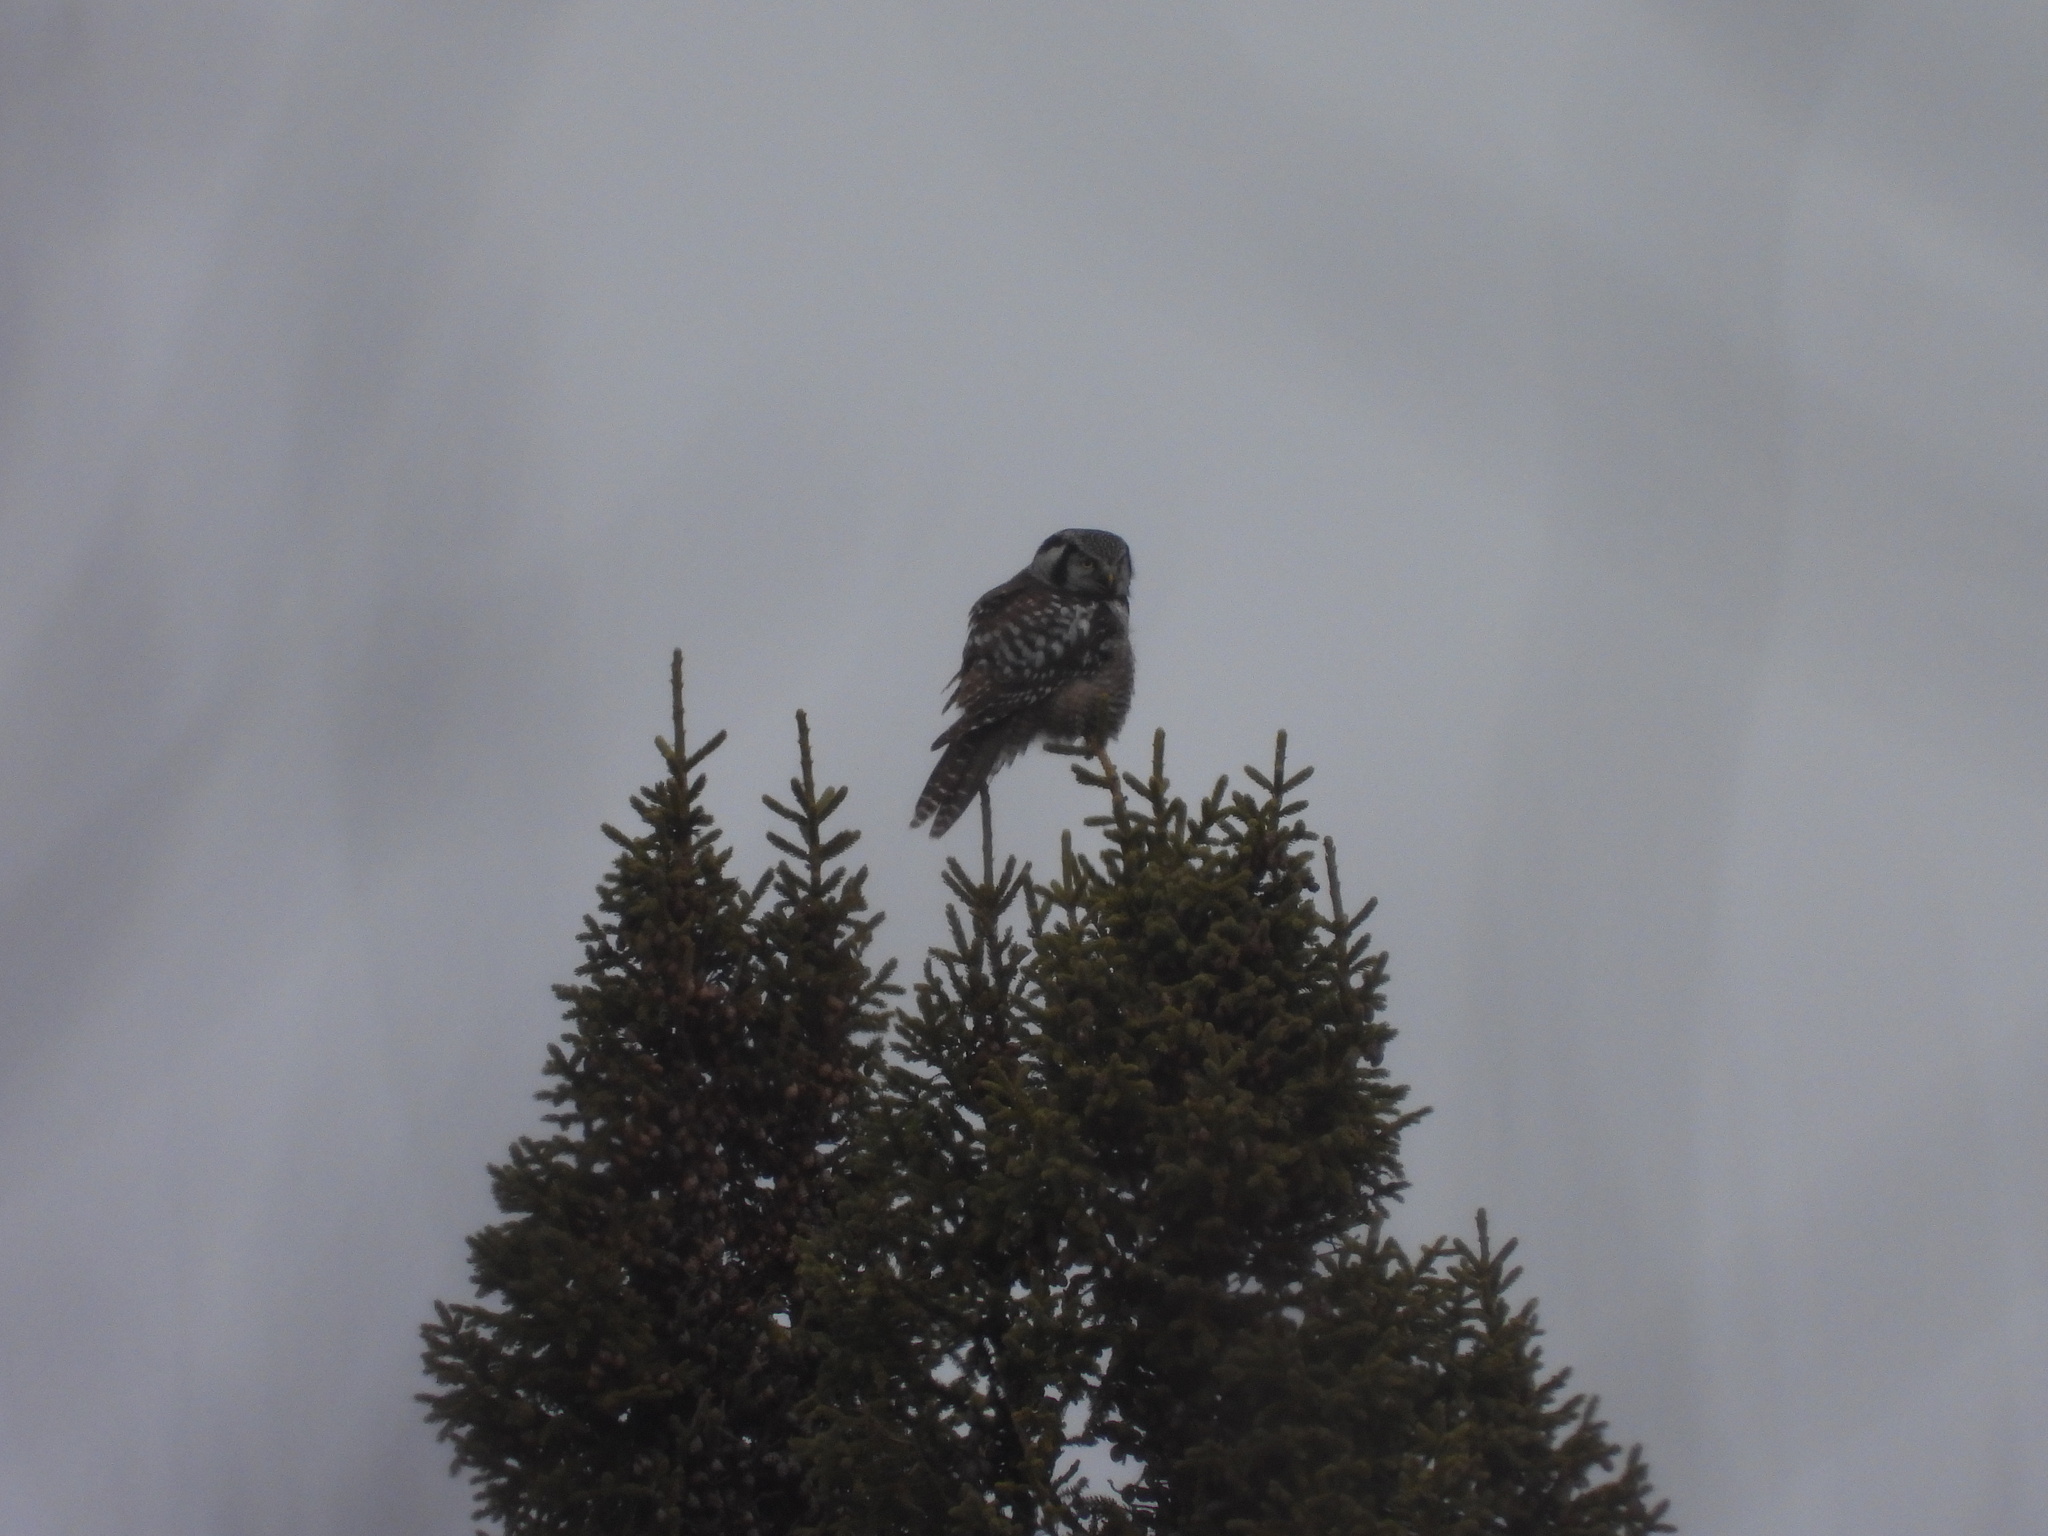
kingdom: Animalia
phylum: Chordata
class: Aves
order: Strigiformes
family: Strigidae
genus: Surnia
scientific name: Surnia ulula
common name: Northern hawk-owl
